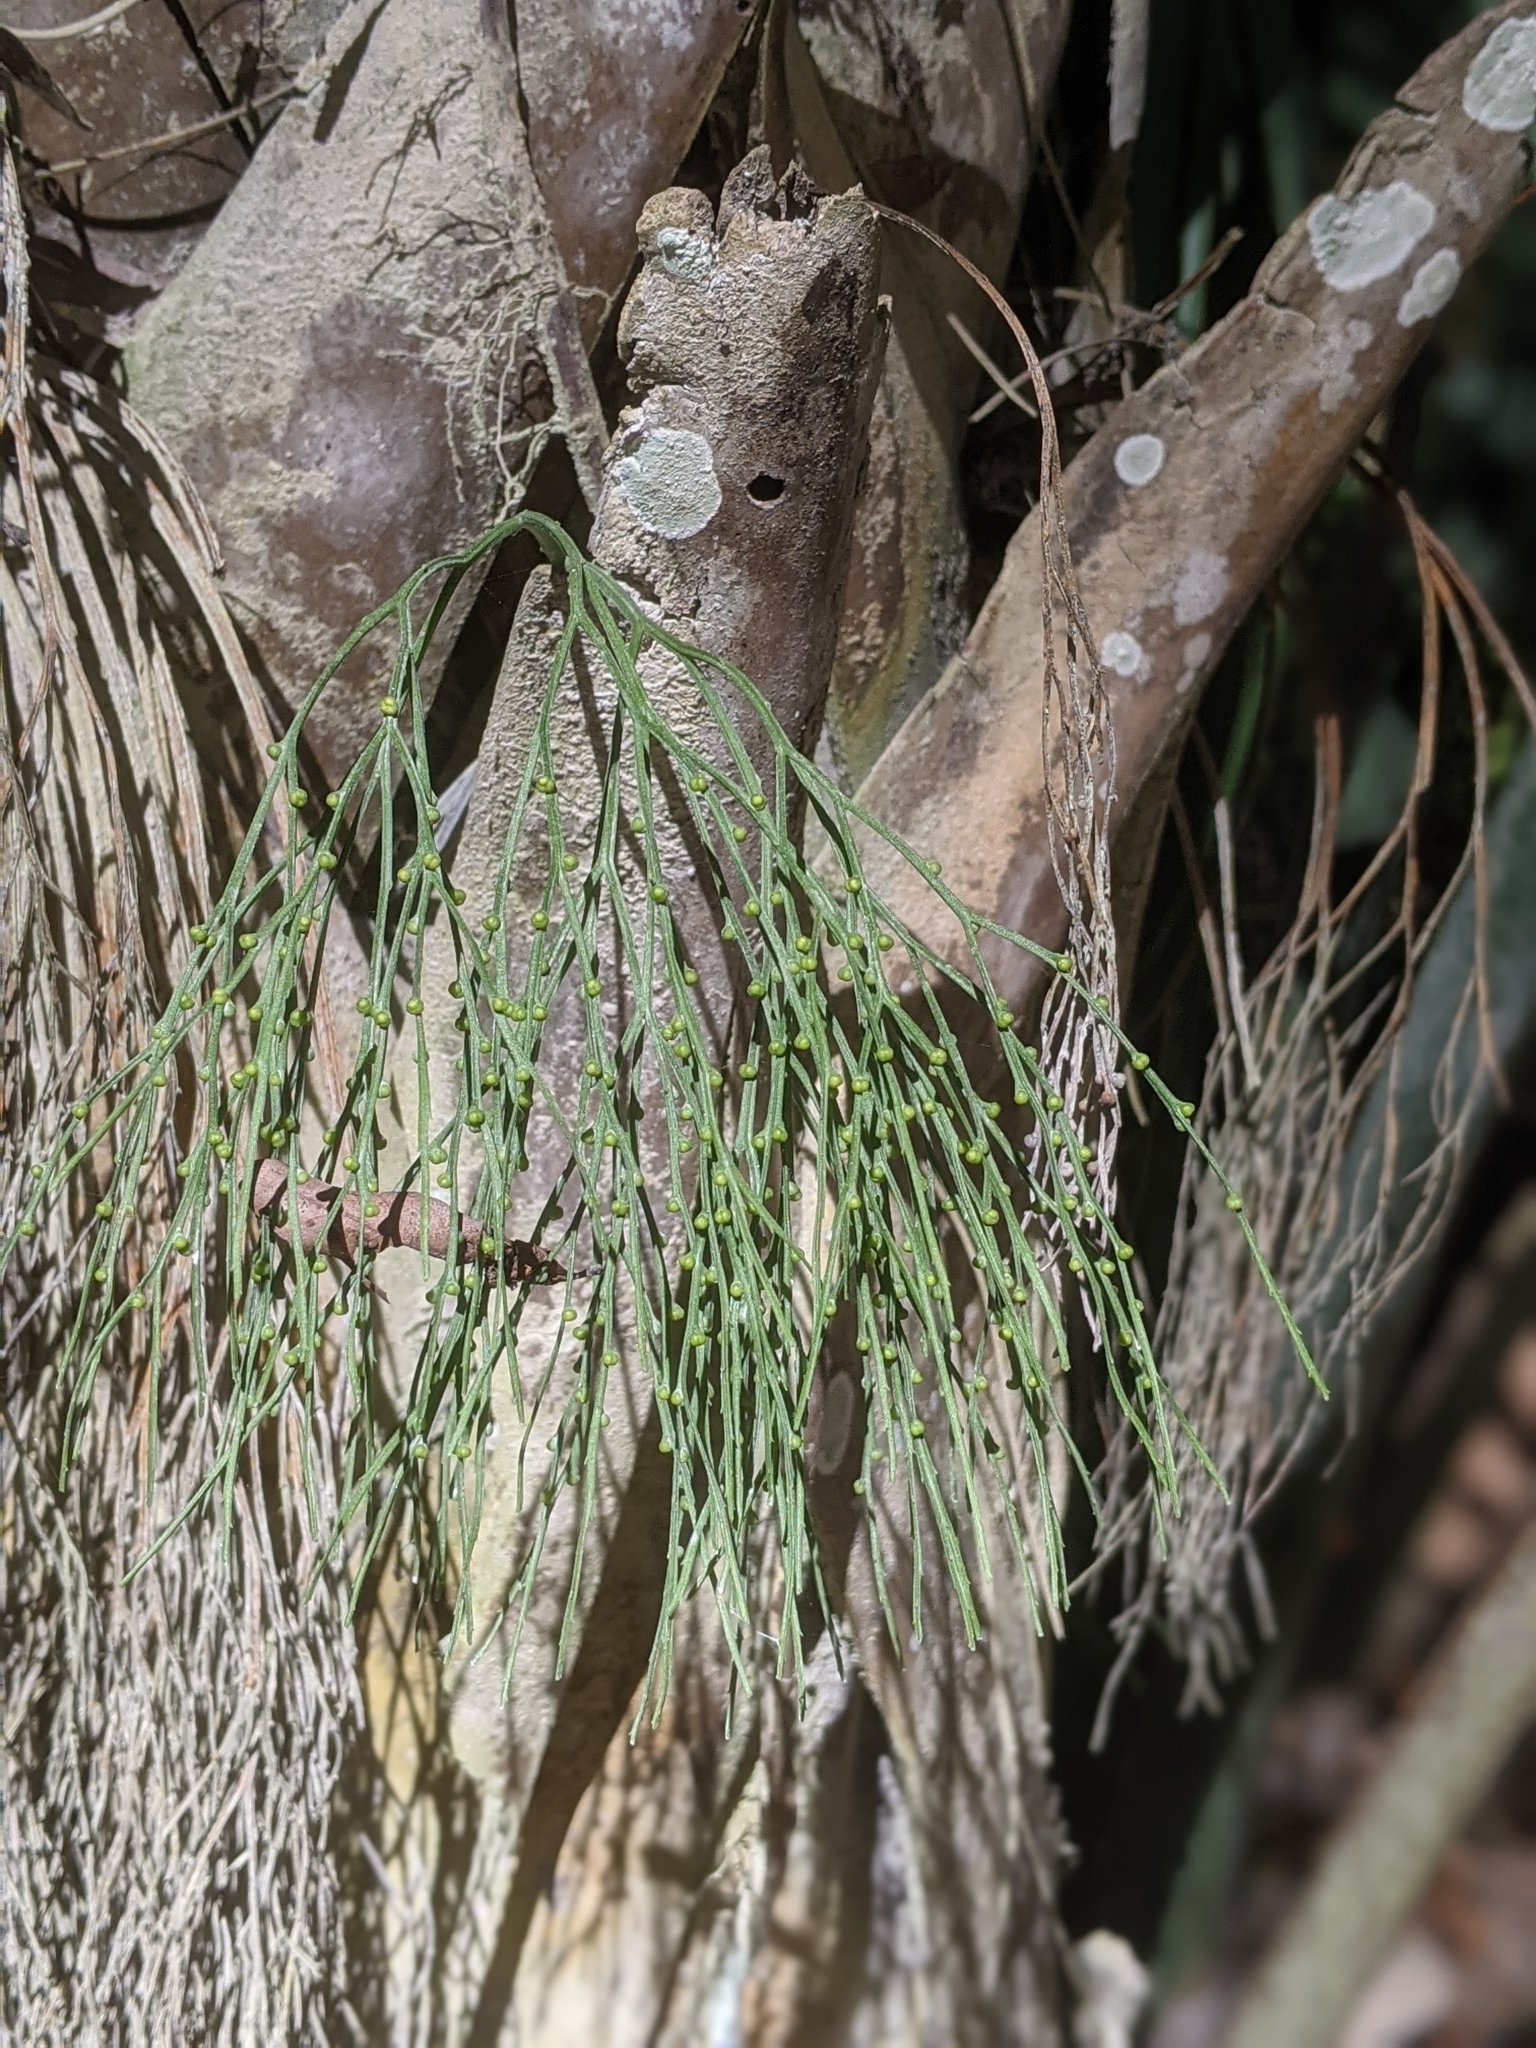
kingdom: Plantae
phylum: Tracheophyta
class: Polypodiopsida
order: Psilotales
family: Psilotaceae
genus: Psilotum
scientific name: Psilotum nudum
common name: Skeleton fork fern
